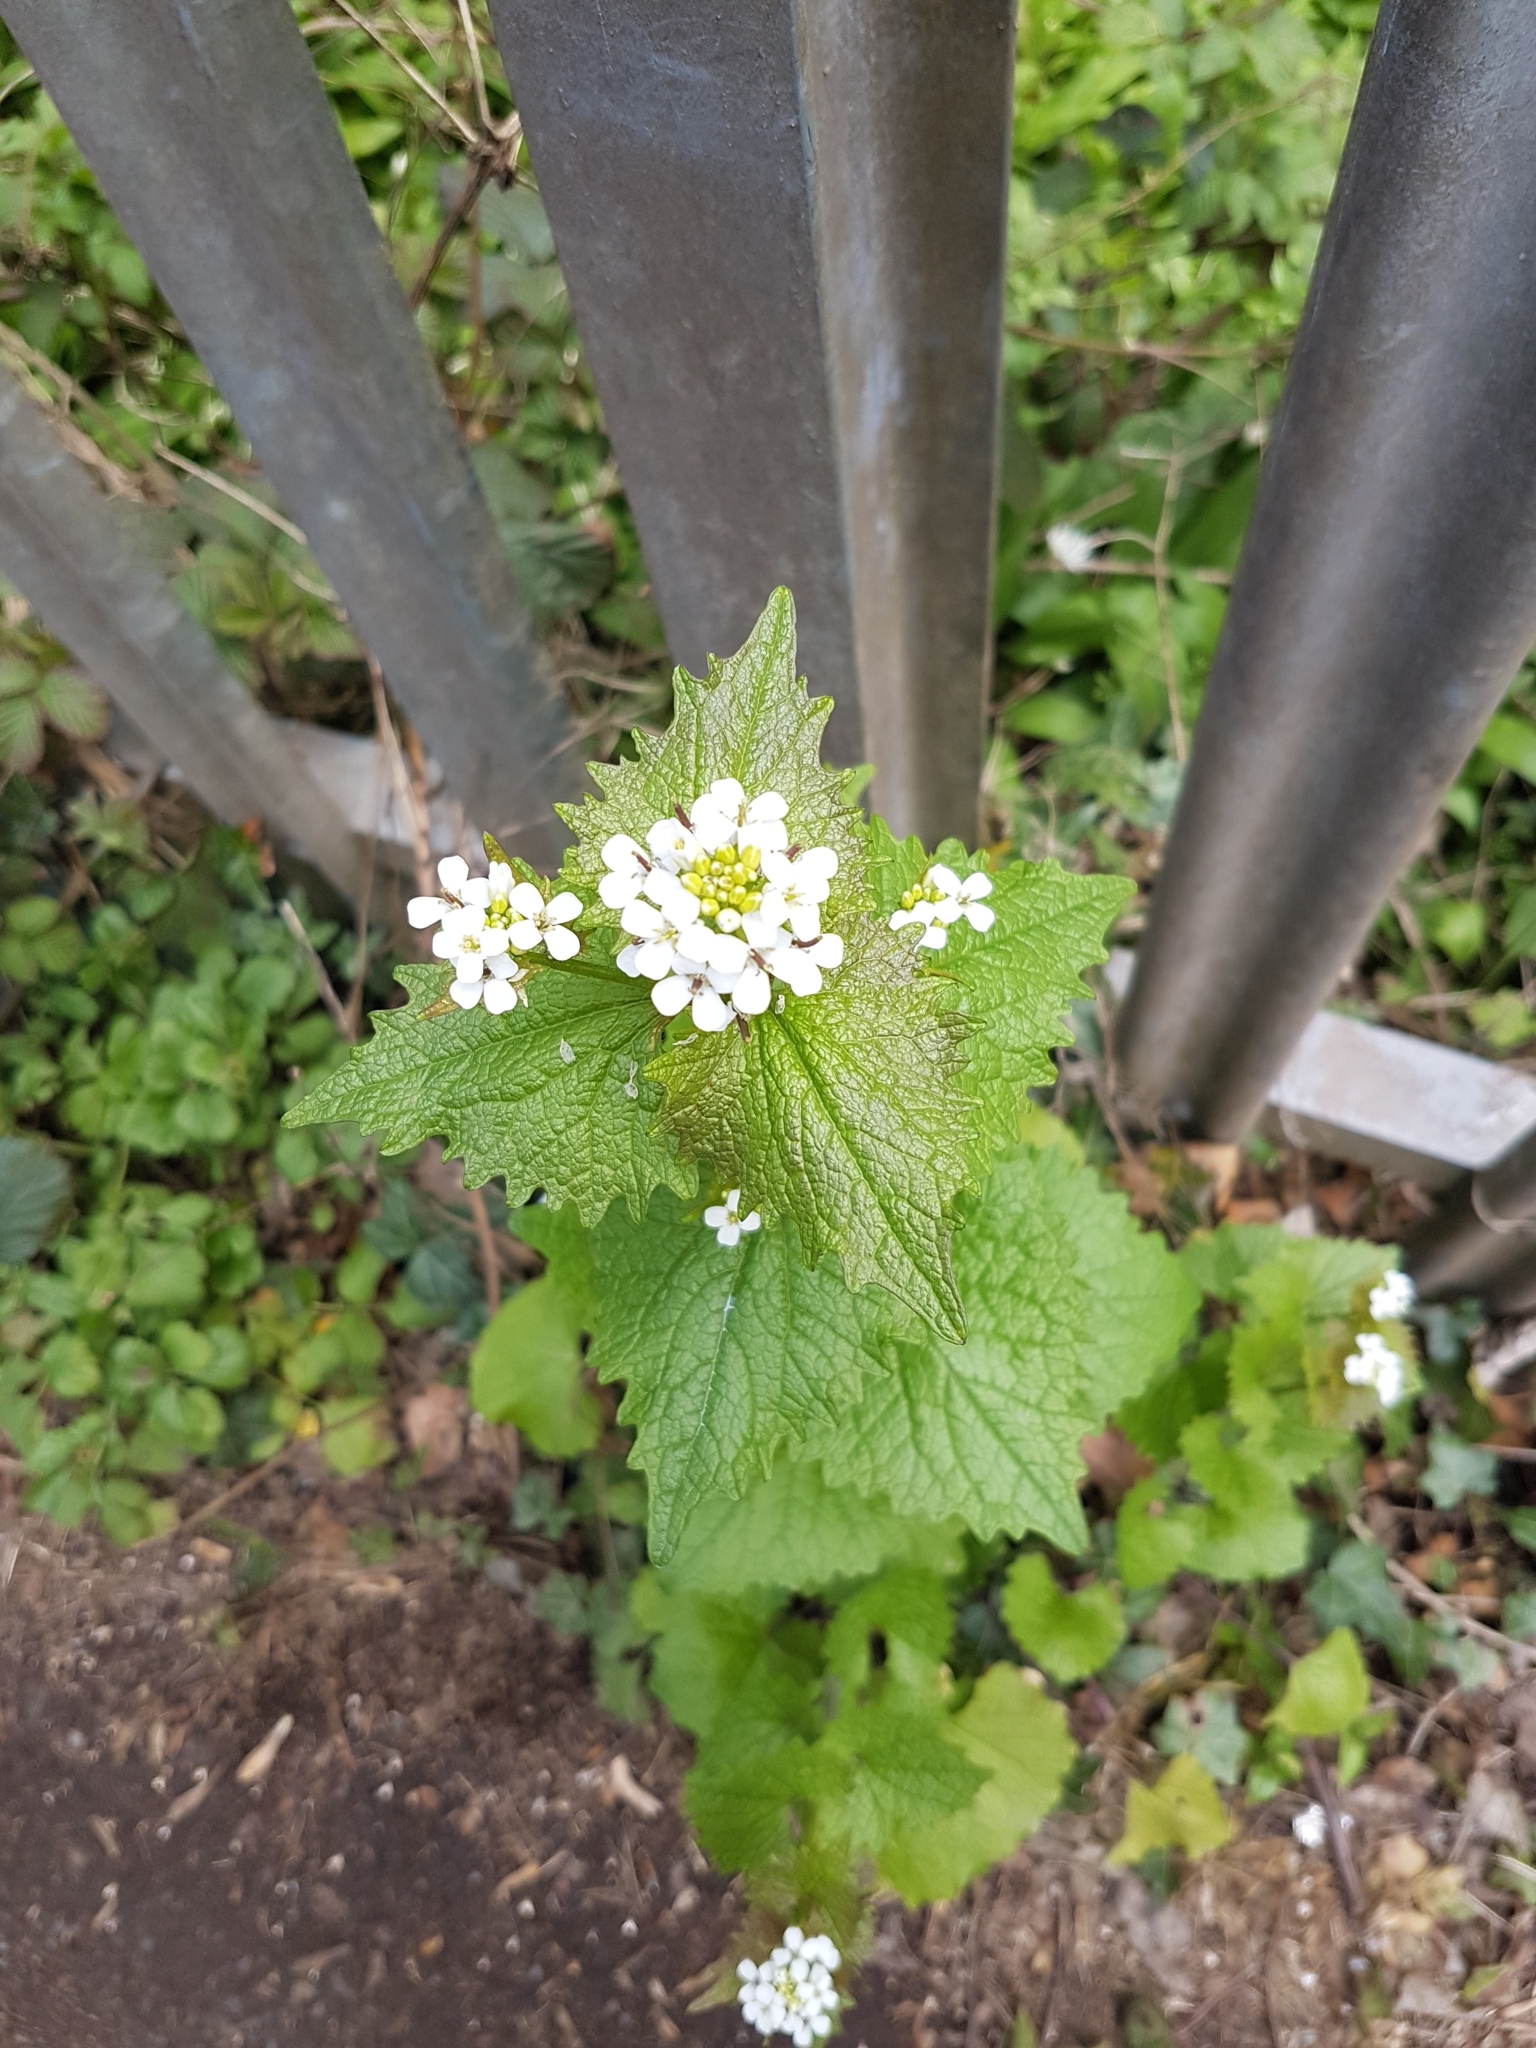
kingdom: Plantae
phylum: Tracheophyta
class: Magnoliopsida
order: Brassicales
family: Brassicaceae
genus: Alliaria
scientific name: Alliaria petiolata
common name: Garlic mustard
